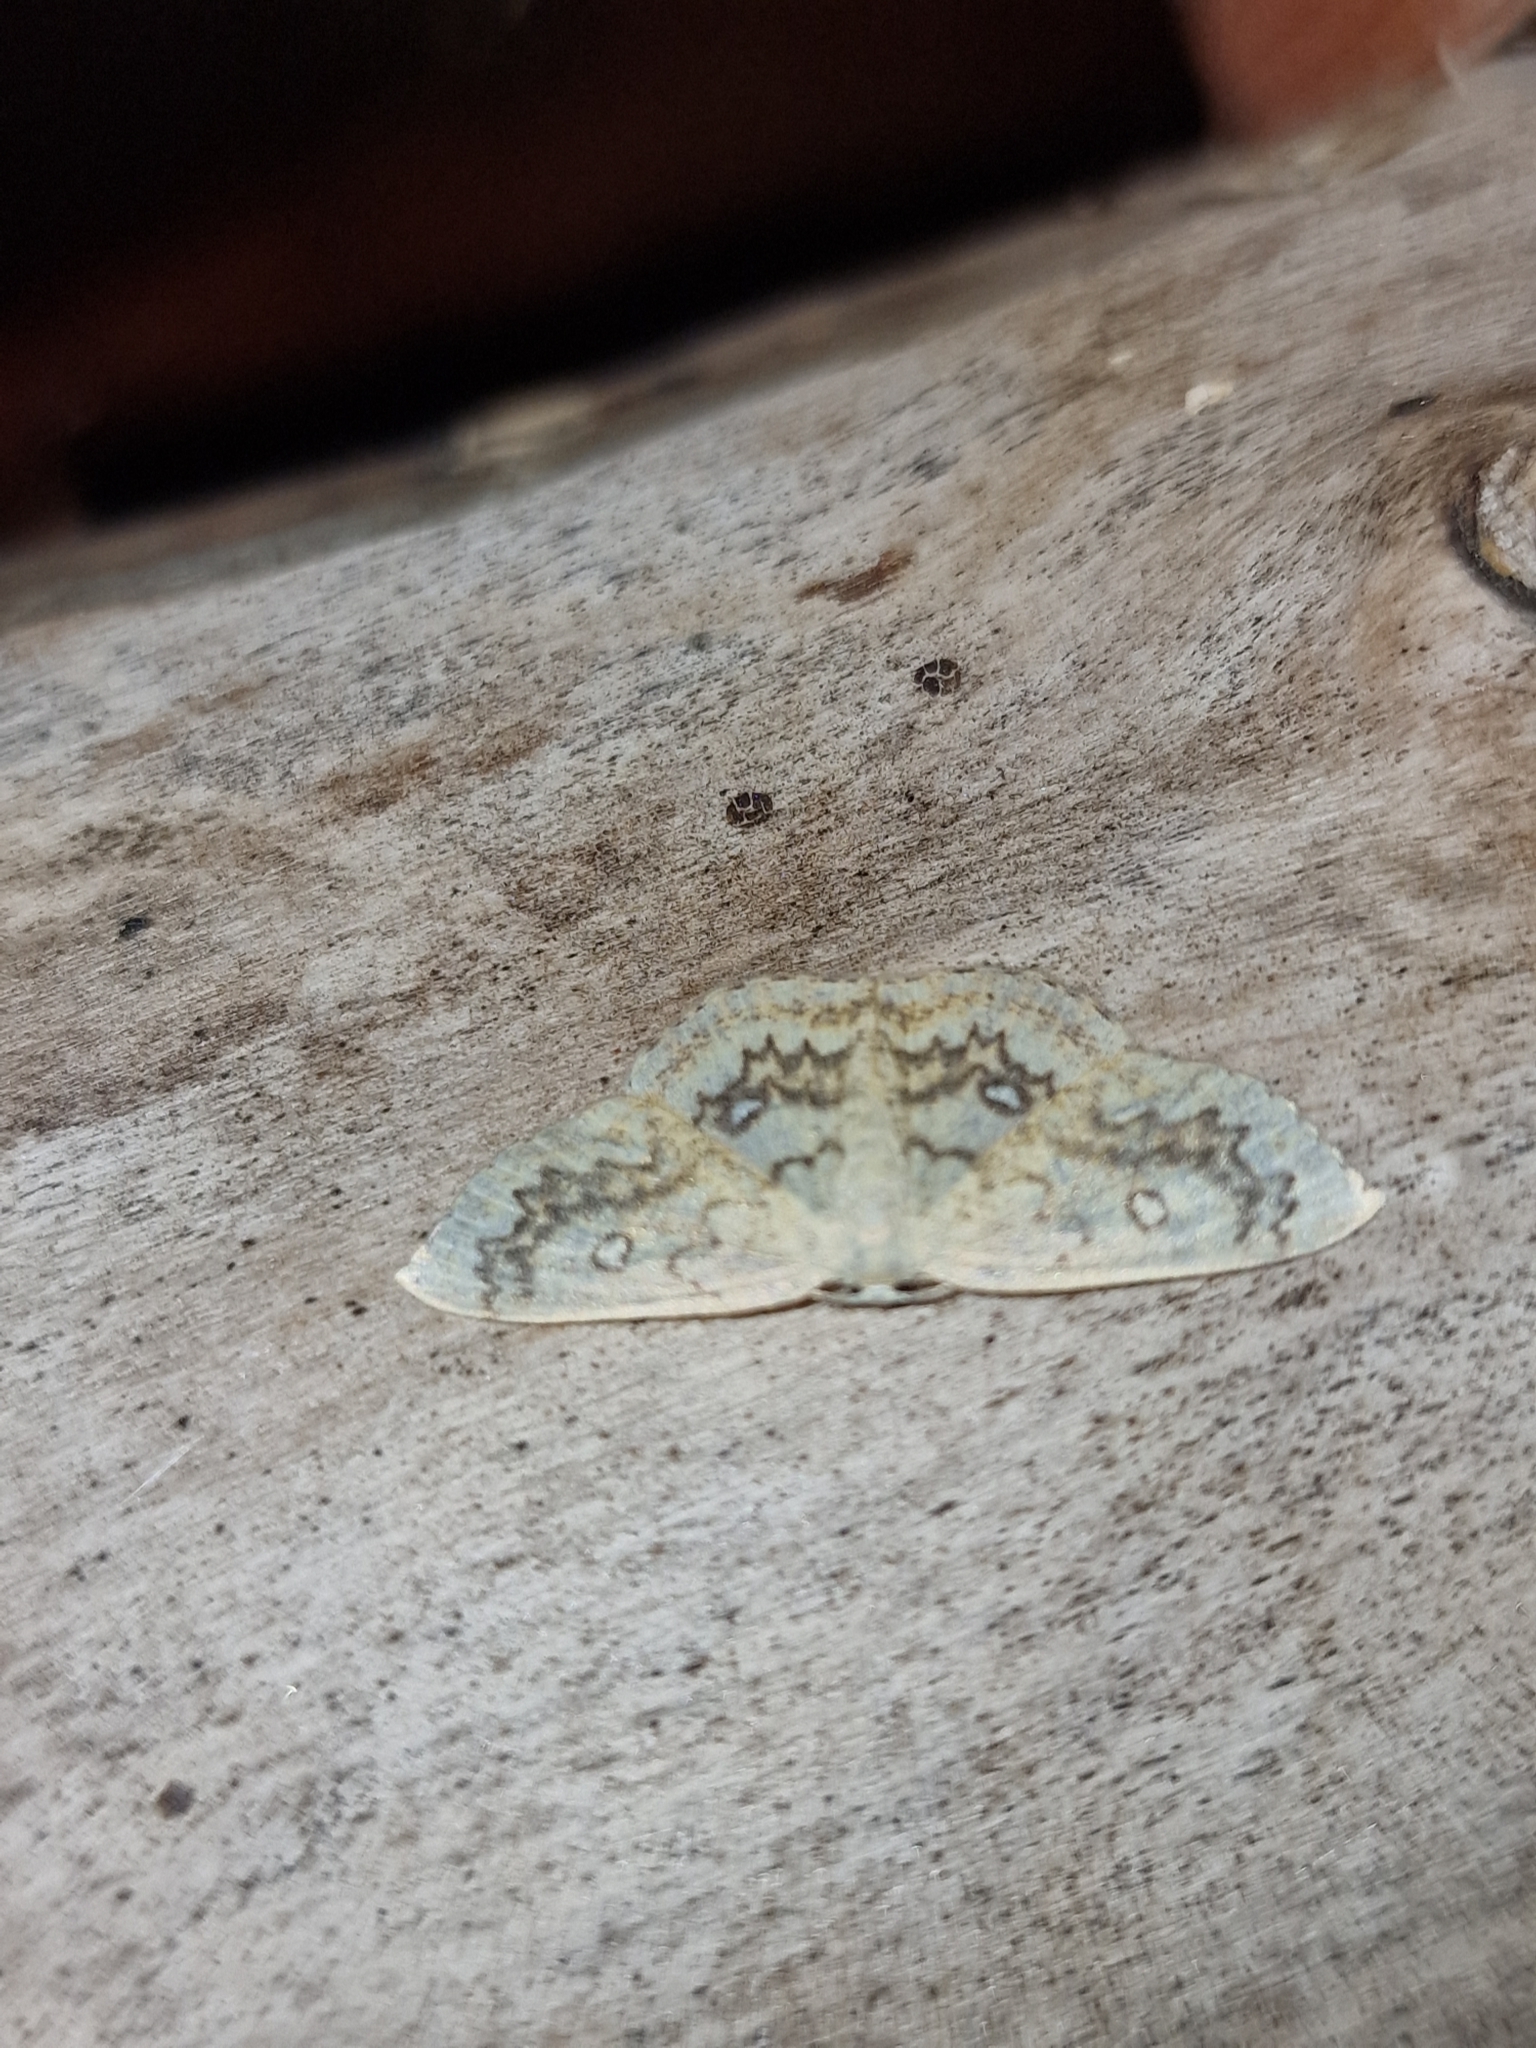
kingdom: Animalia
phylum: Arthropoda
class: Insecta
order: Lepidoptera
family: Geometridae
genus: Cyclophora
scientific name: Cyclophora annularia
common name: Mocha
